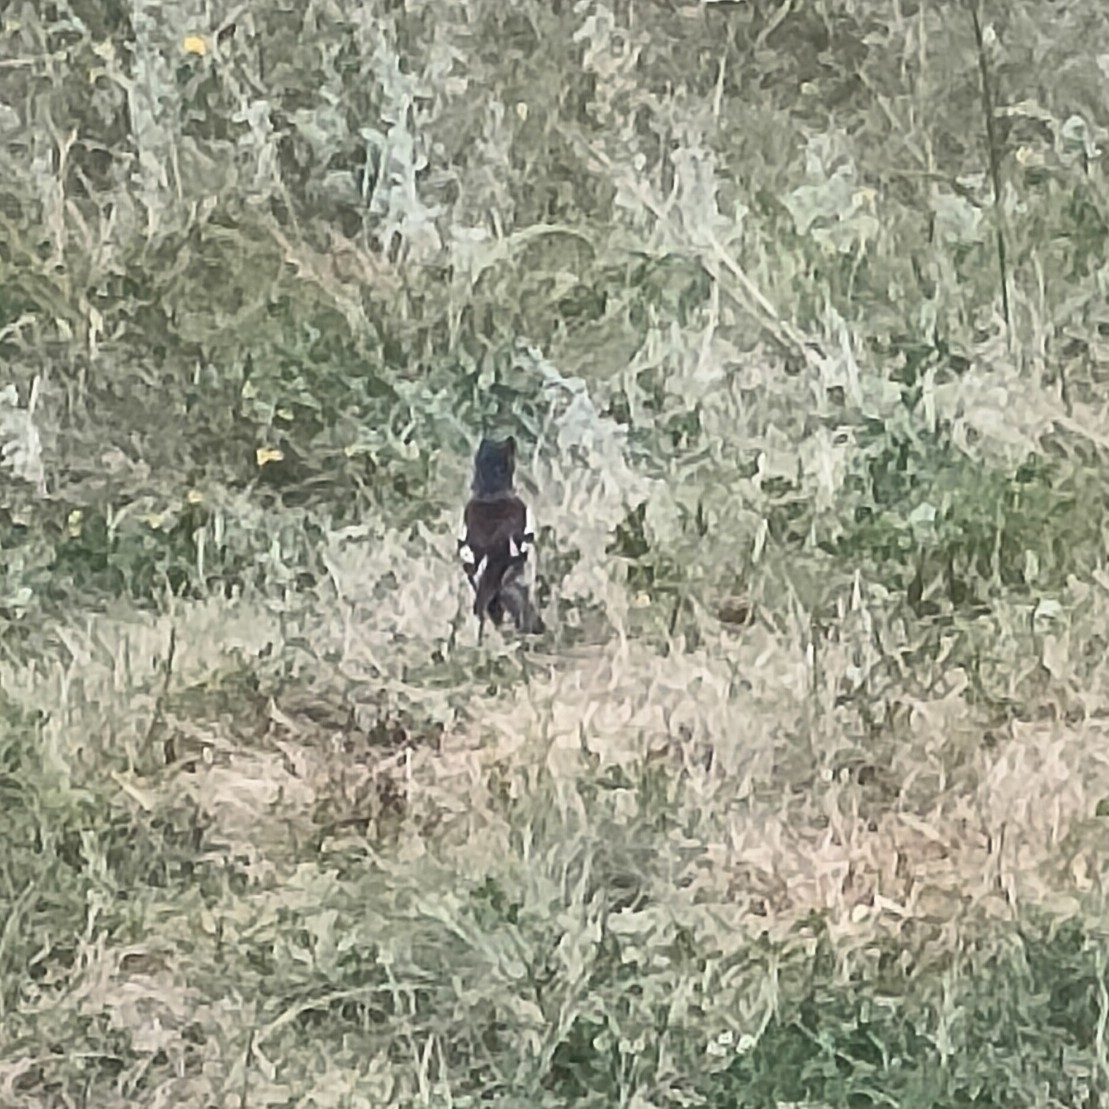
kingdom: Animalia
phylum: Chordata
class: Aves
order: Passeriformes
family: Fringillidae
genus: Fringilla
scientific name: Fringilla coelebs
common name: Common chaffinch
